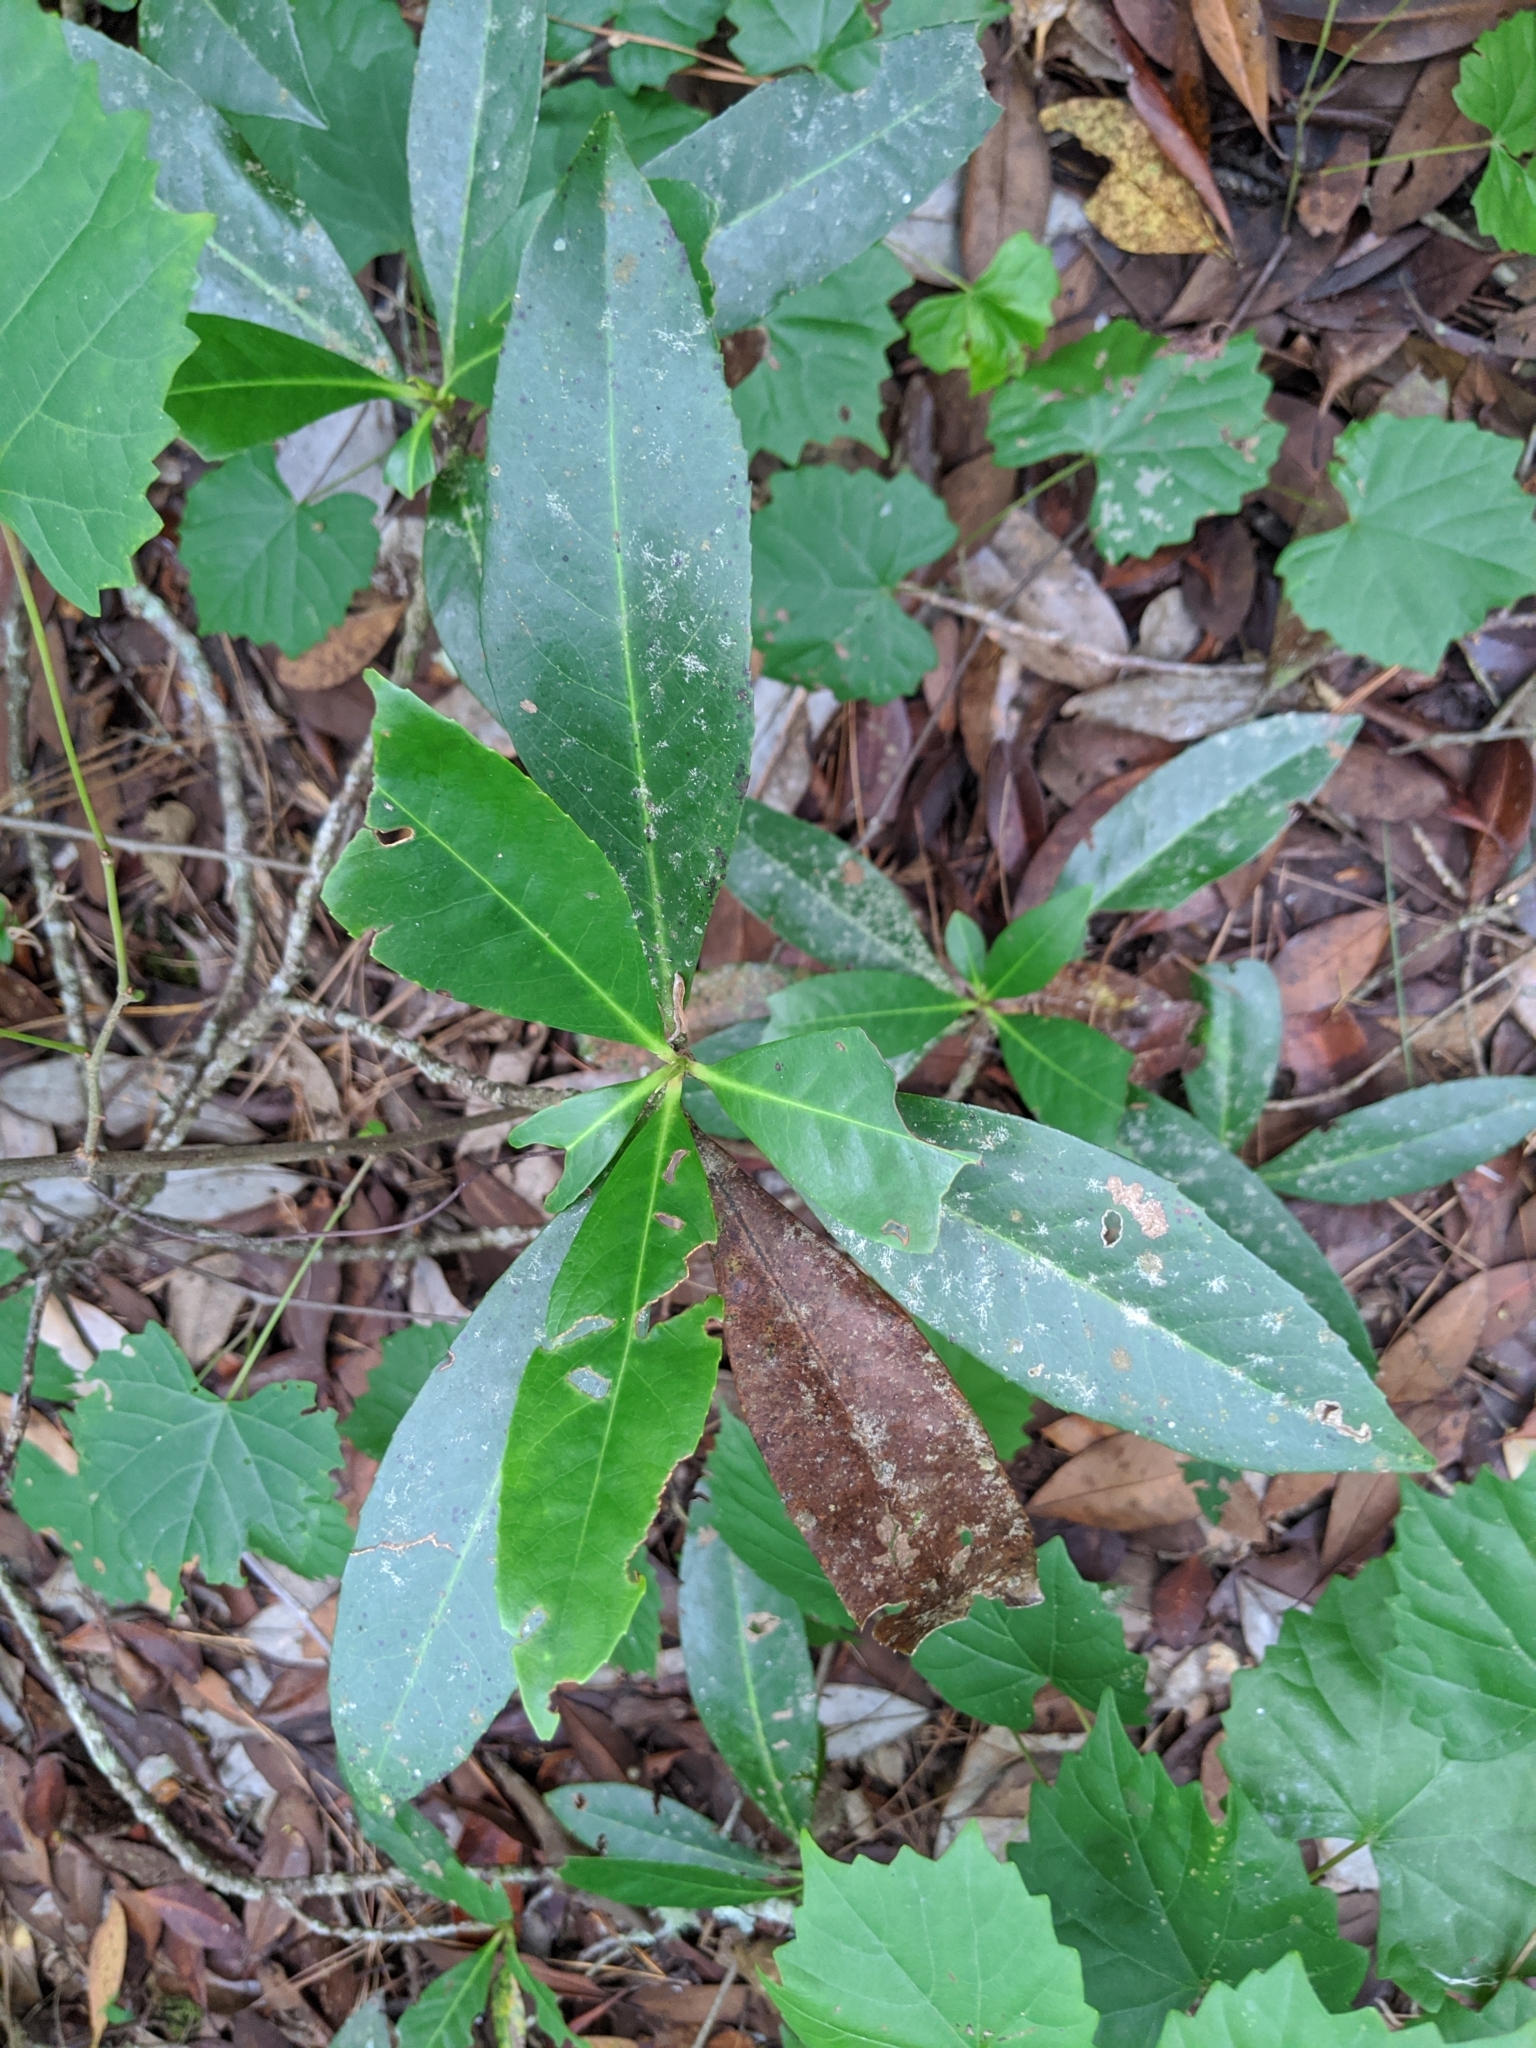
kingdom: Plantae
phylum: Tracheophyta
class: Magnoliopsida
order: Ericales
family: Theaceae
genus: Gordonia
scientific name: Gordonia lasianthus
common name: Loblolly bay
